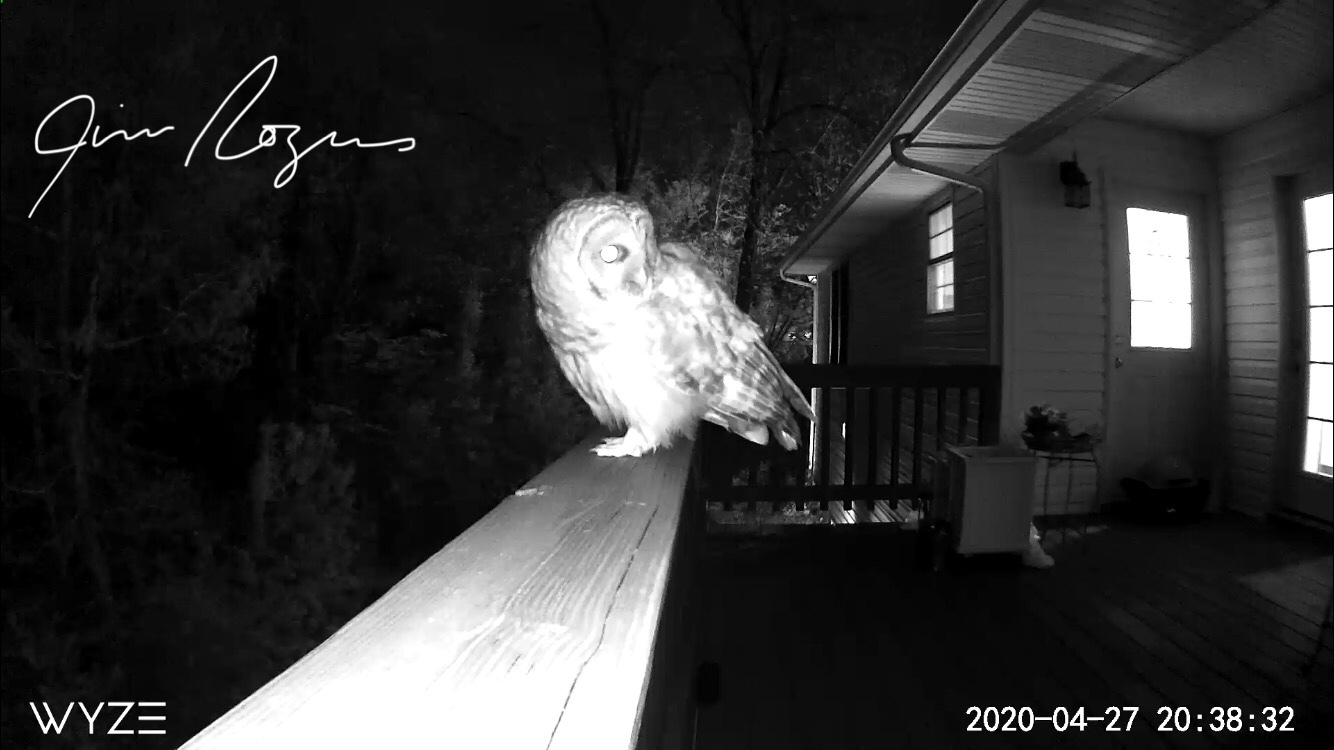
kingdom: Animalia
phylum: Chordata
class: Aves
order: Strigiformes
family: Strigidae
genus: Strix
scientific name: Strix varia
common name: Barred owl
